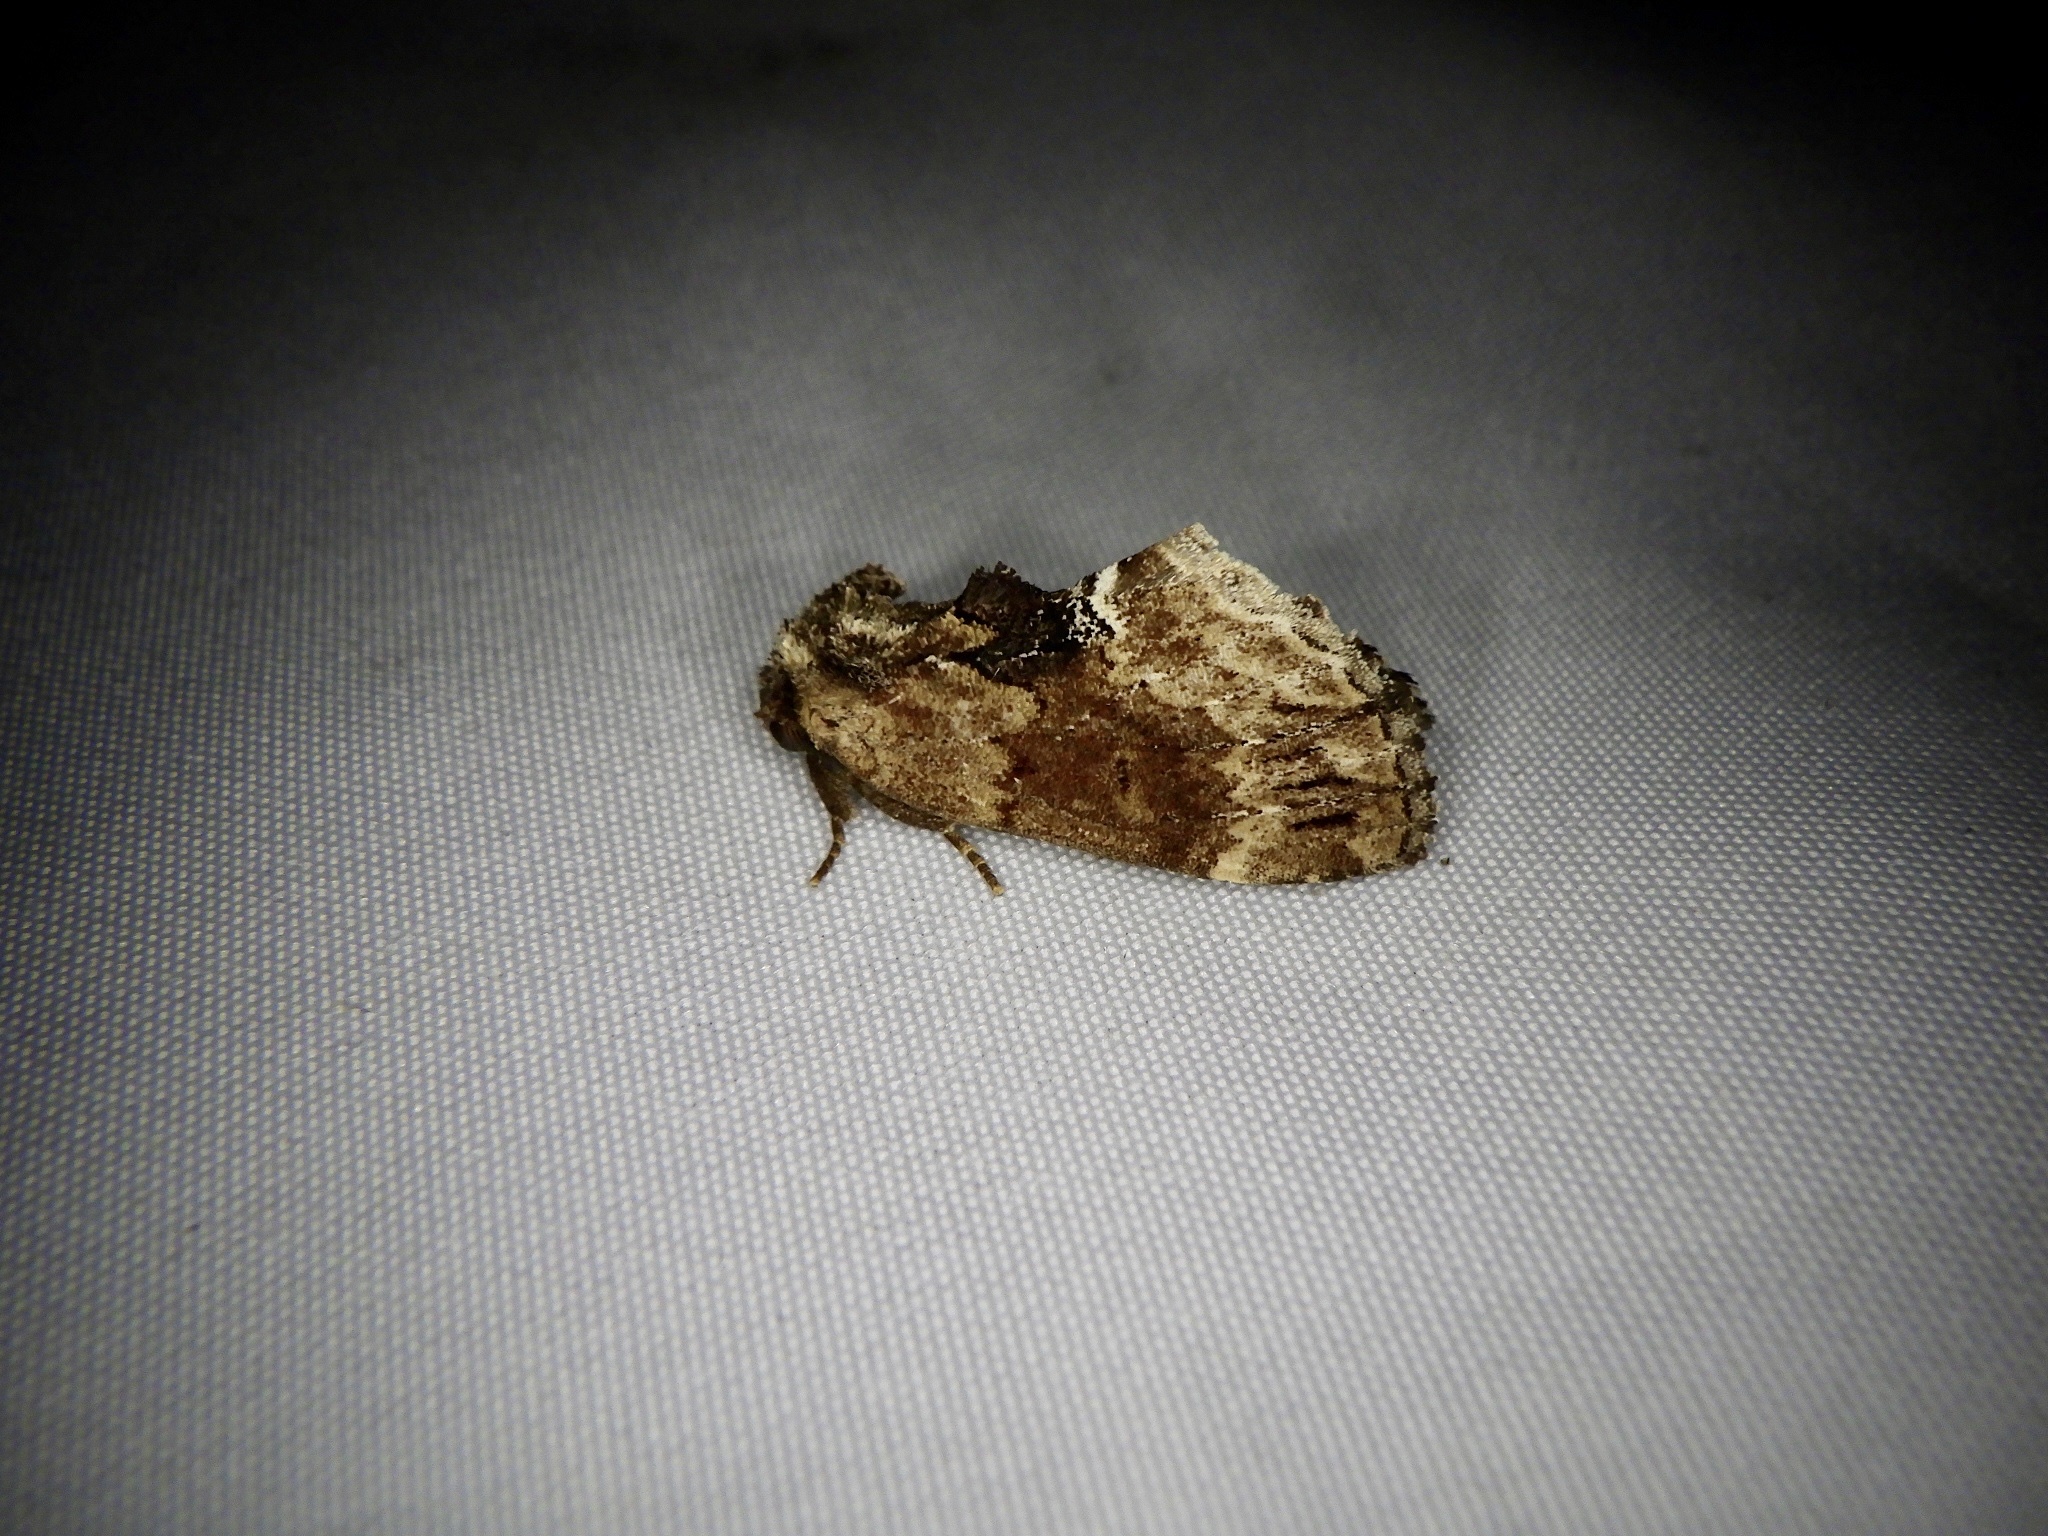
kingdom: Animalia
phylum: Arthropoda
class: Insecta
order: Lepidoptera
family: Notodontidae
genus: Lophontosia
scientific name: Lophontosia
